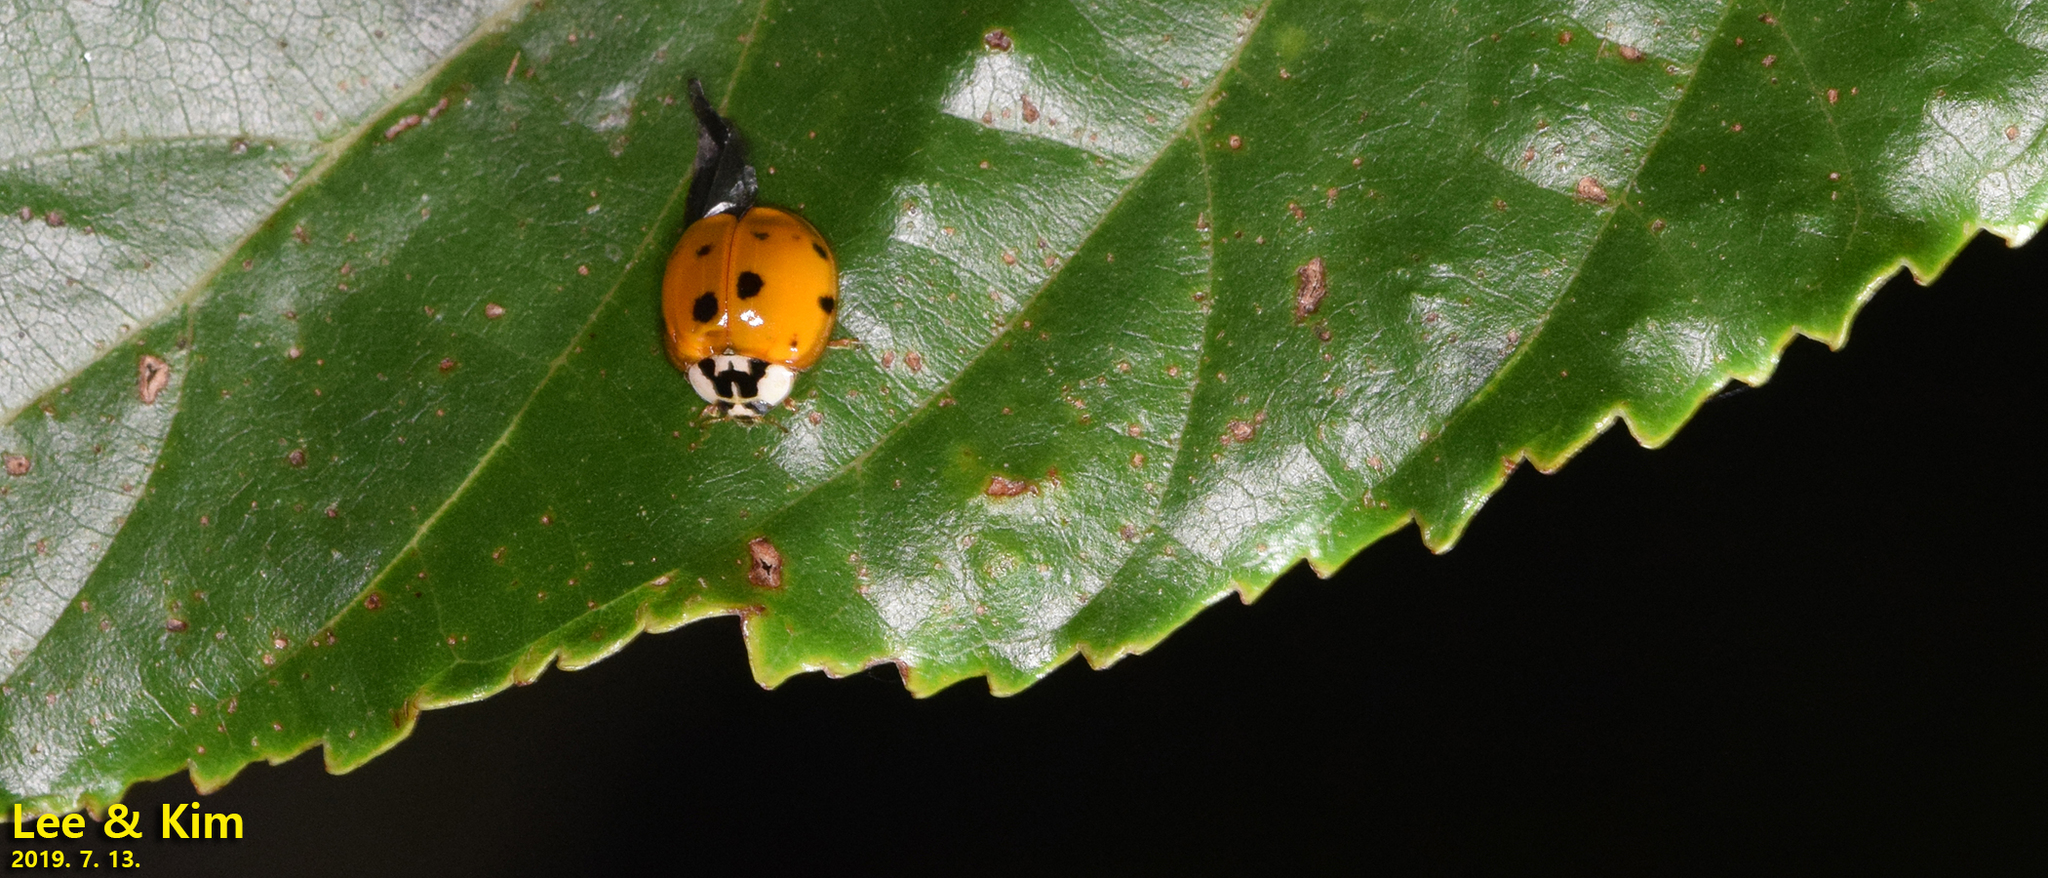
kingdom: Animalia
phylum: Arthropoda
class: Insecta
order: Coleoptera
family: Coccinellidae
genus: Harmonia
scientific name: Harmonia axyridis
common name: Harlequin ladybird
